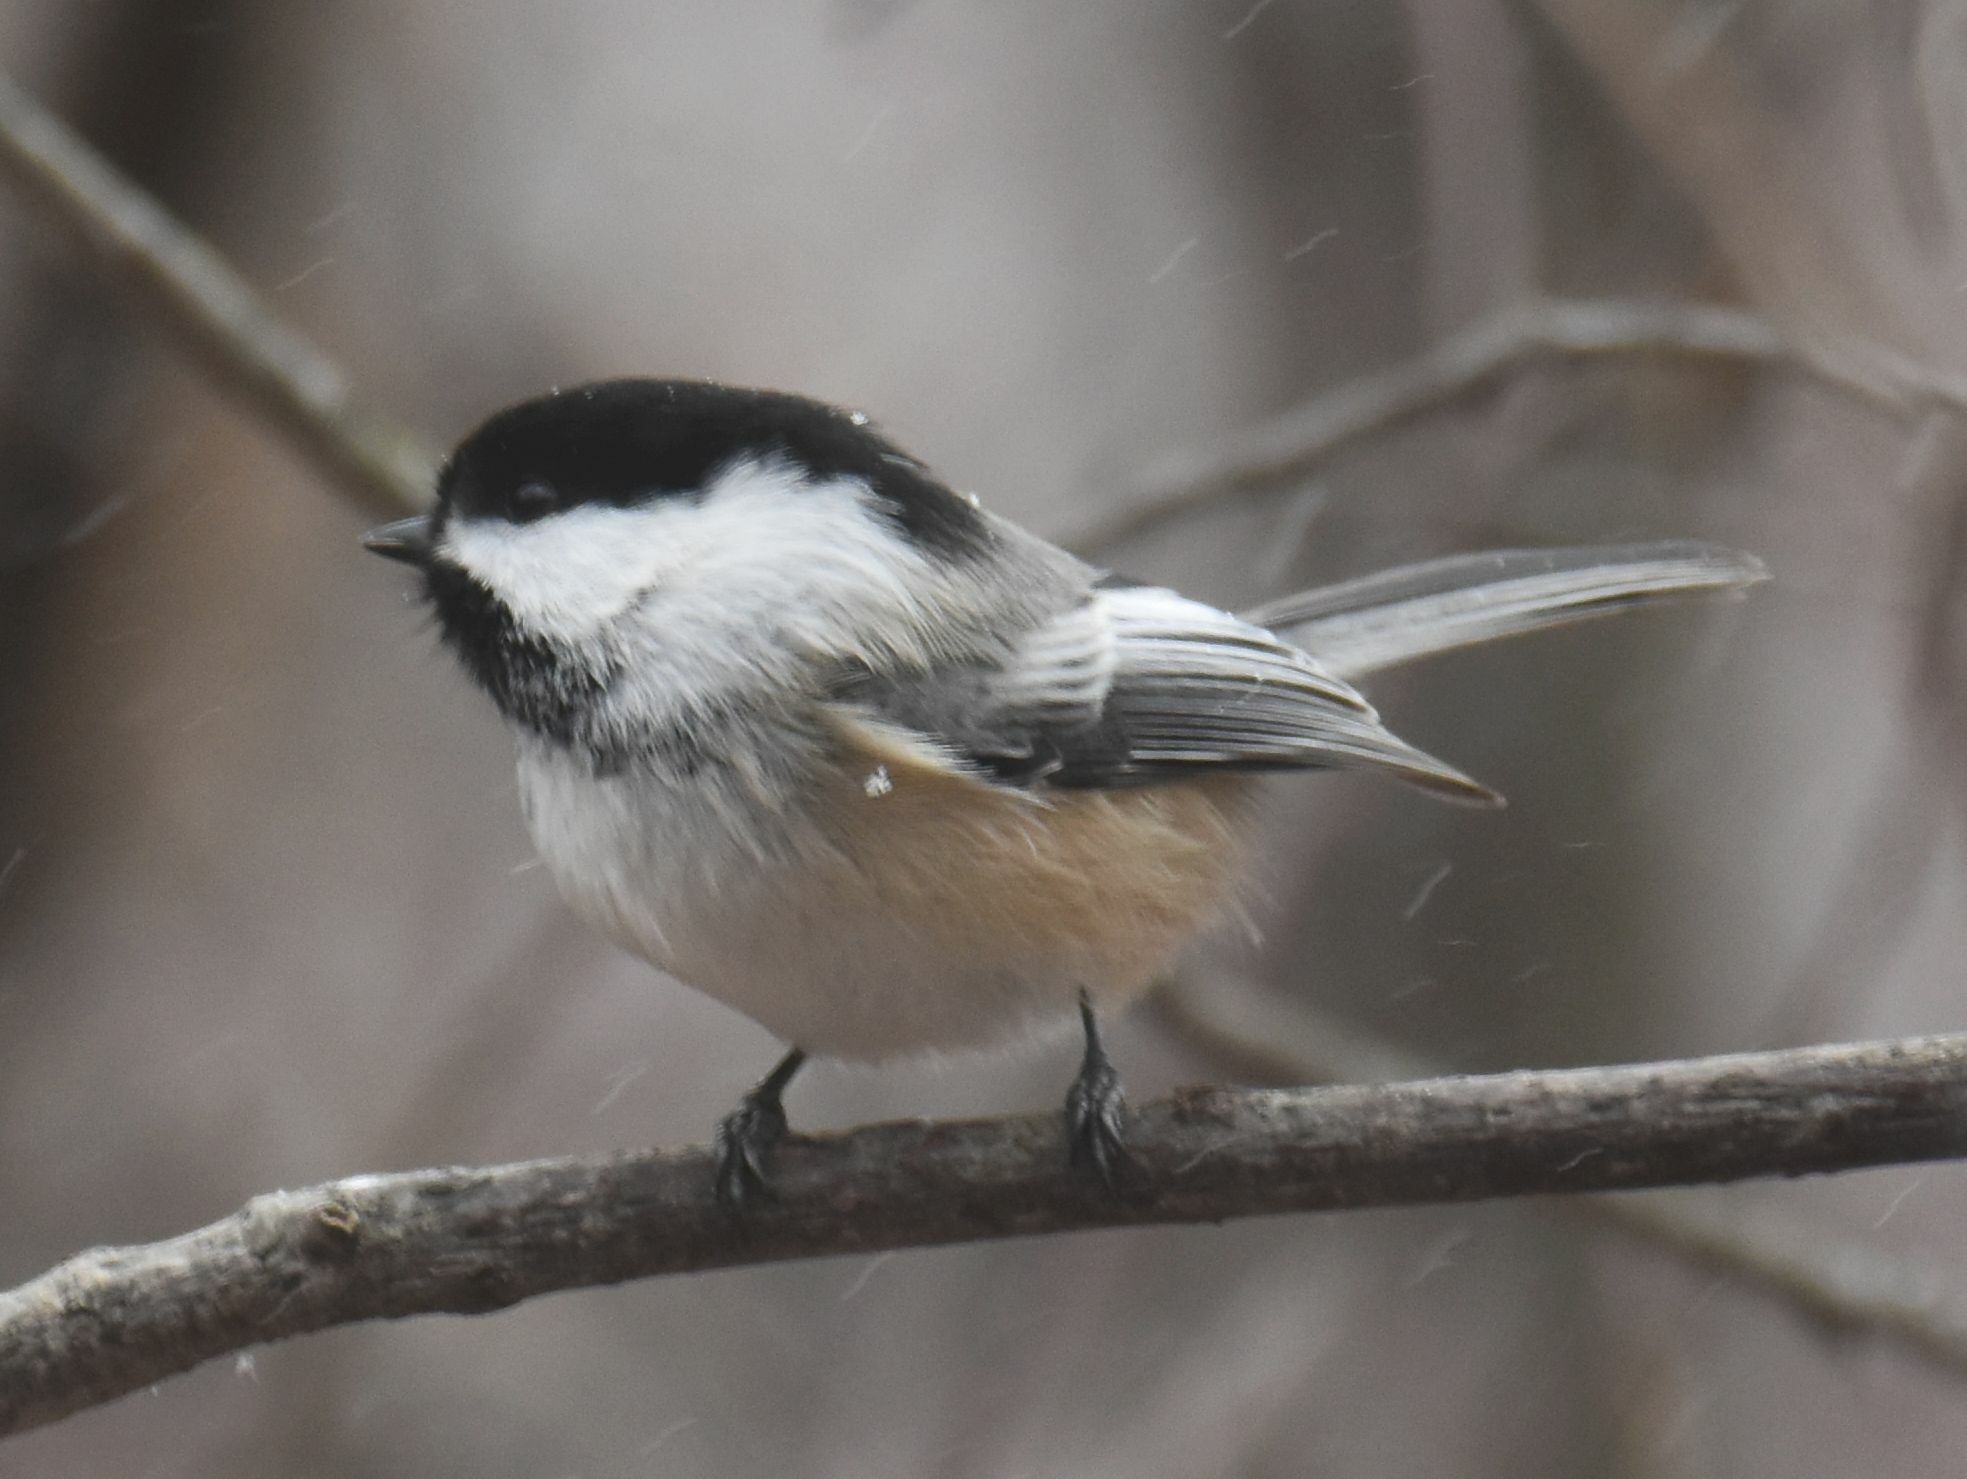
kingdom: Animalia
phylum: Chordata
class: Aves
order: Passeriformes
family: Paridae
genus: Poecile
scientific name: Poecile atricapillus
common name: Black-capped chickadee
